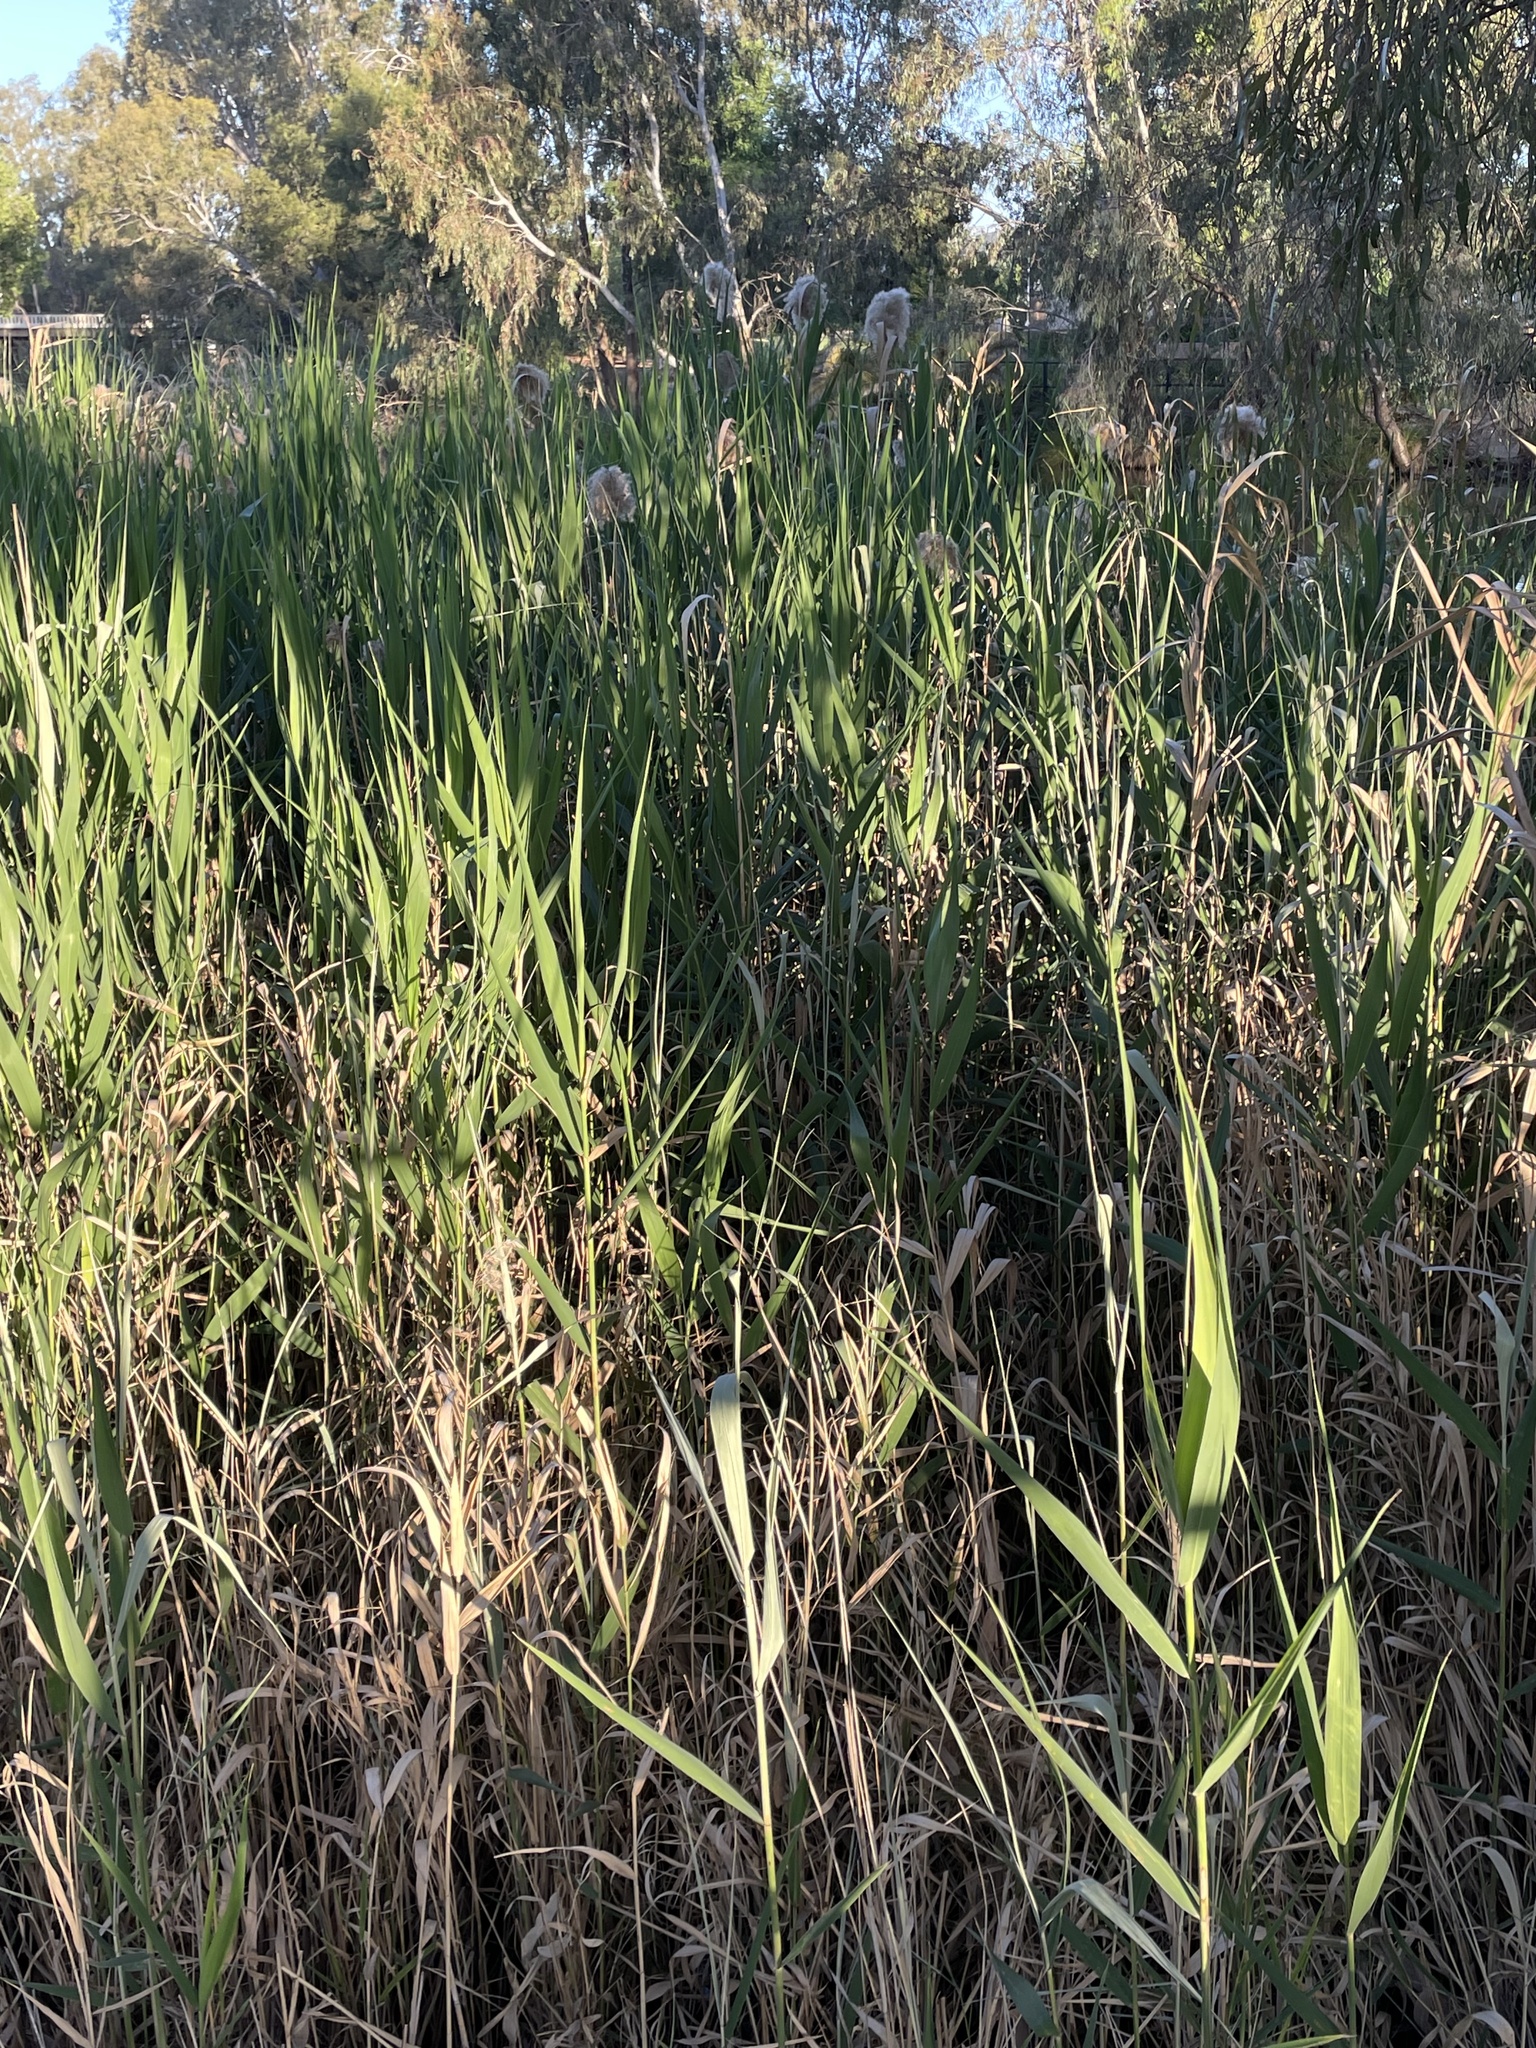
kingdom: Plantae
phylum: Tracheophyta
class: Liliopsida
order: Poales
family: Poaceae
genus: Phragmites
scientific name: Phragmites australis
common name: Common reed
